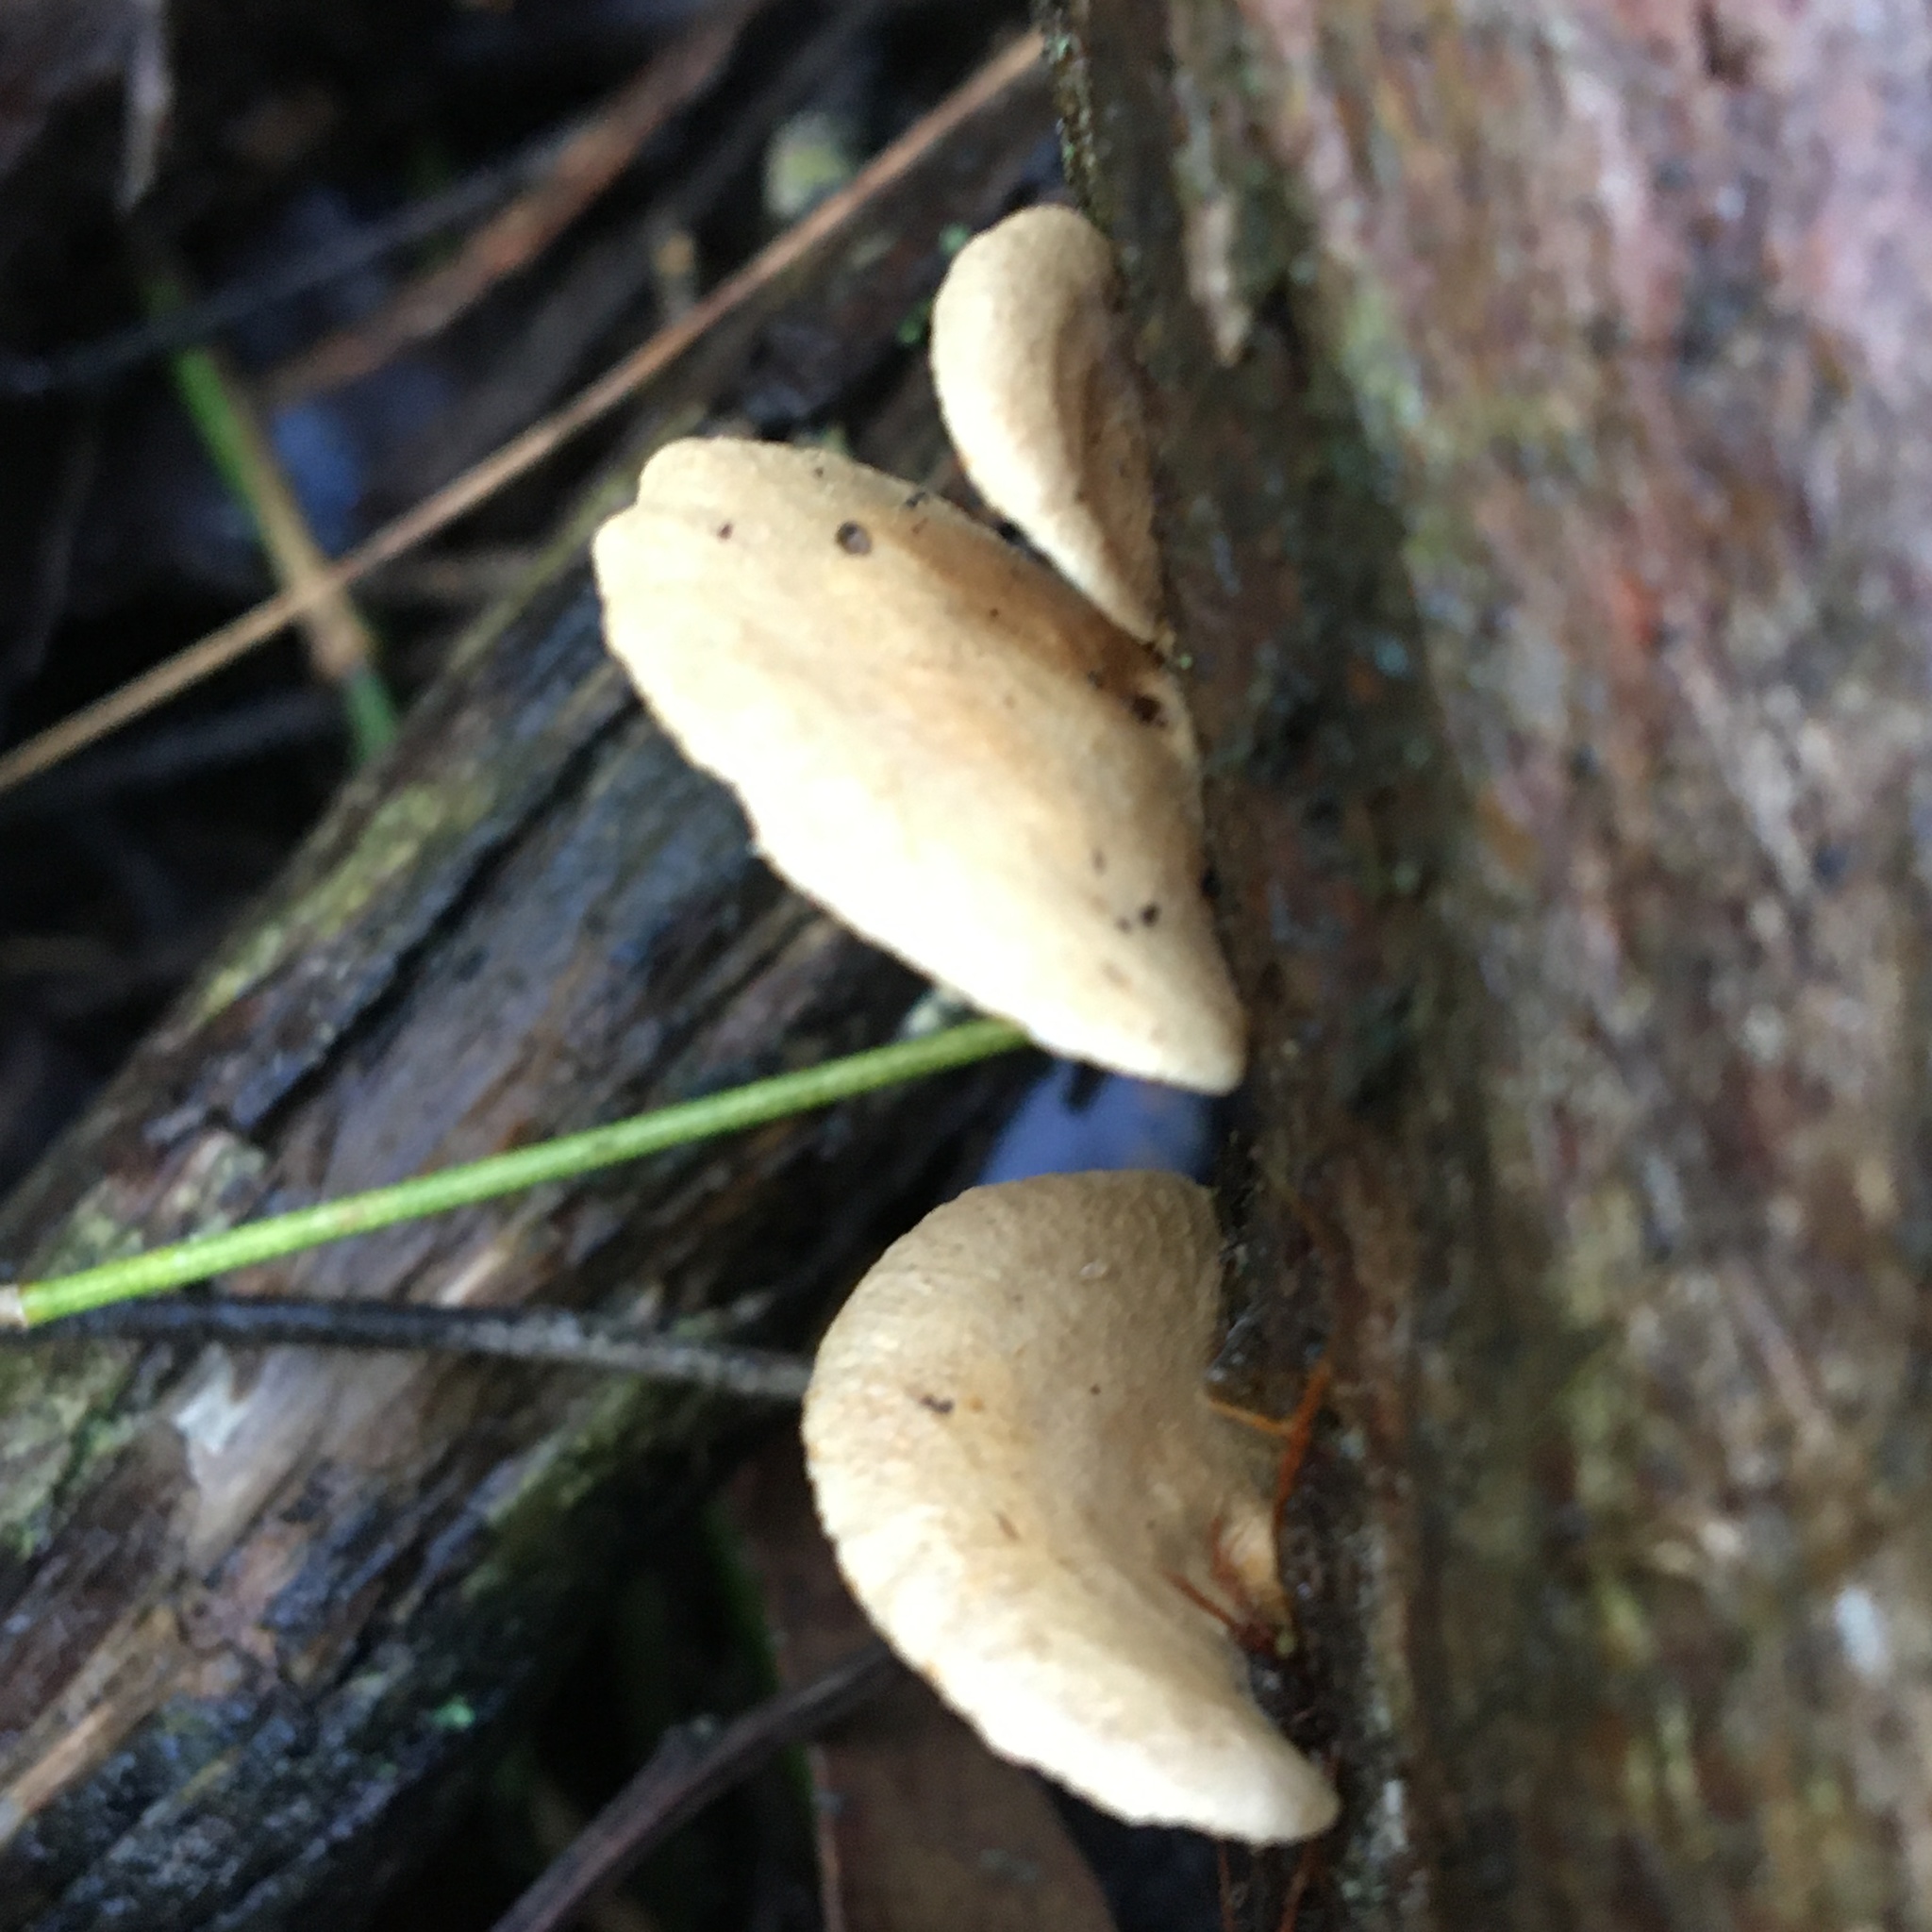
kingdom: Fungi
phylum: Basidiomycota
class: Agaricomycetes
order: Agaricales
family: Mycenaceae
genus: Panellus
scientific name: Panellus stipticus
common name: Bitter oysterling
